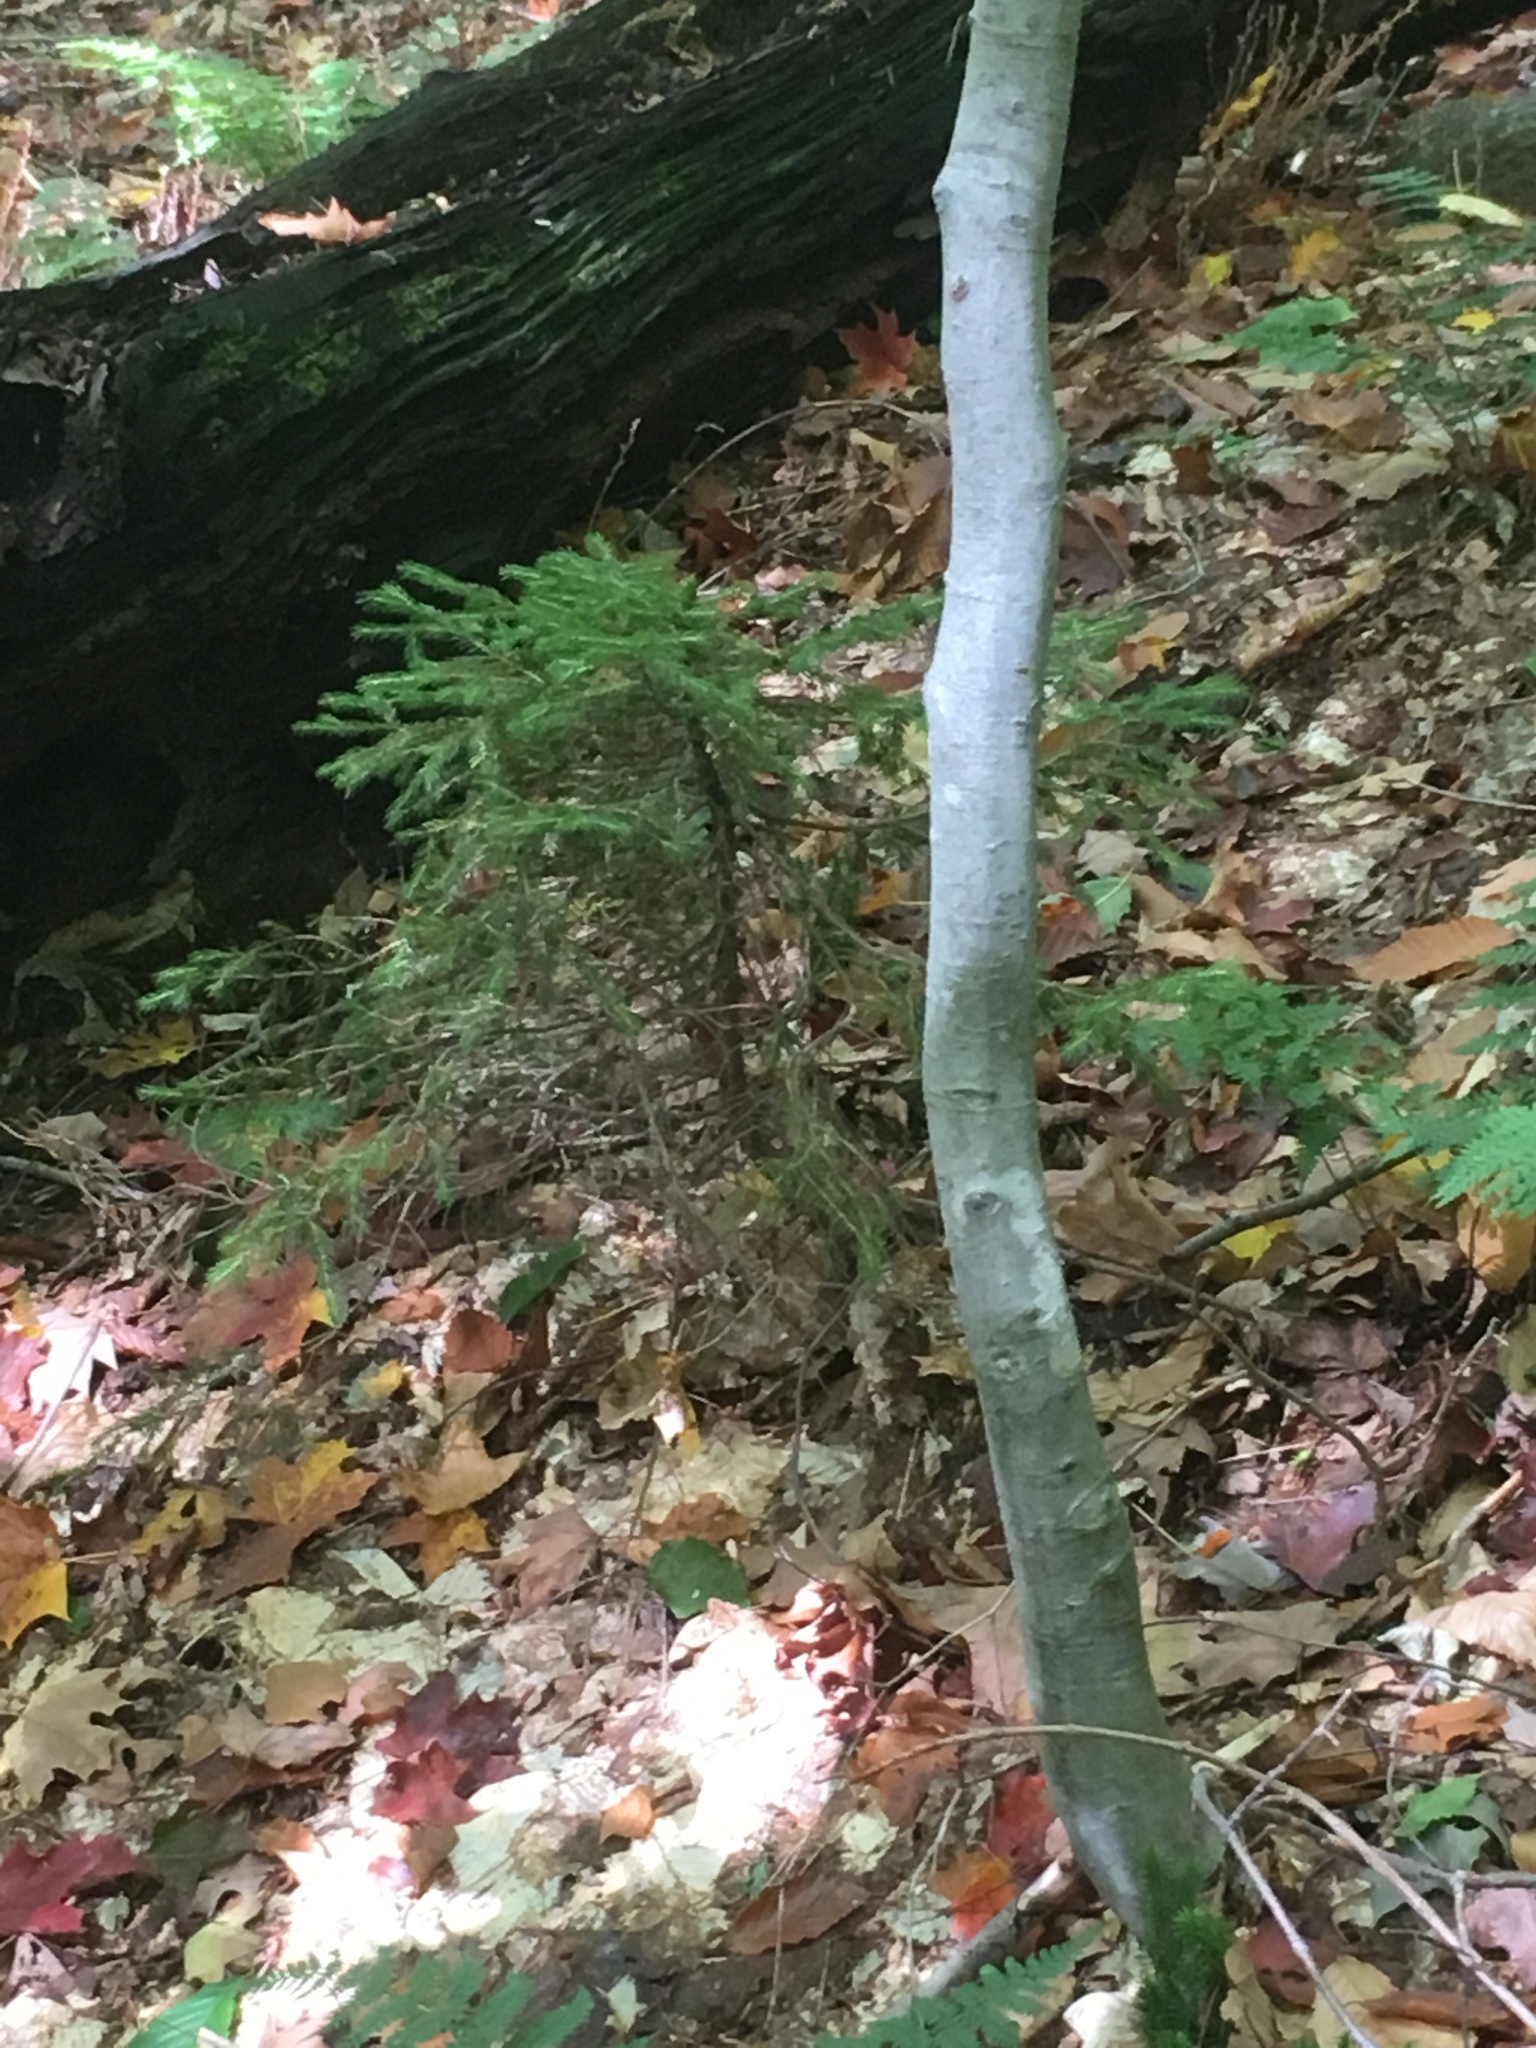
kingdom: Plantae
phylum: Tracheophyta
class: Pinopsida
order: Pinales
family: Pinaceae
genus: Picea
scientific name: Picea rubens
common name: Red spruce
